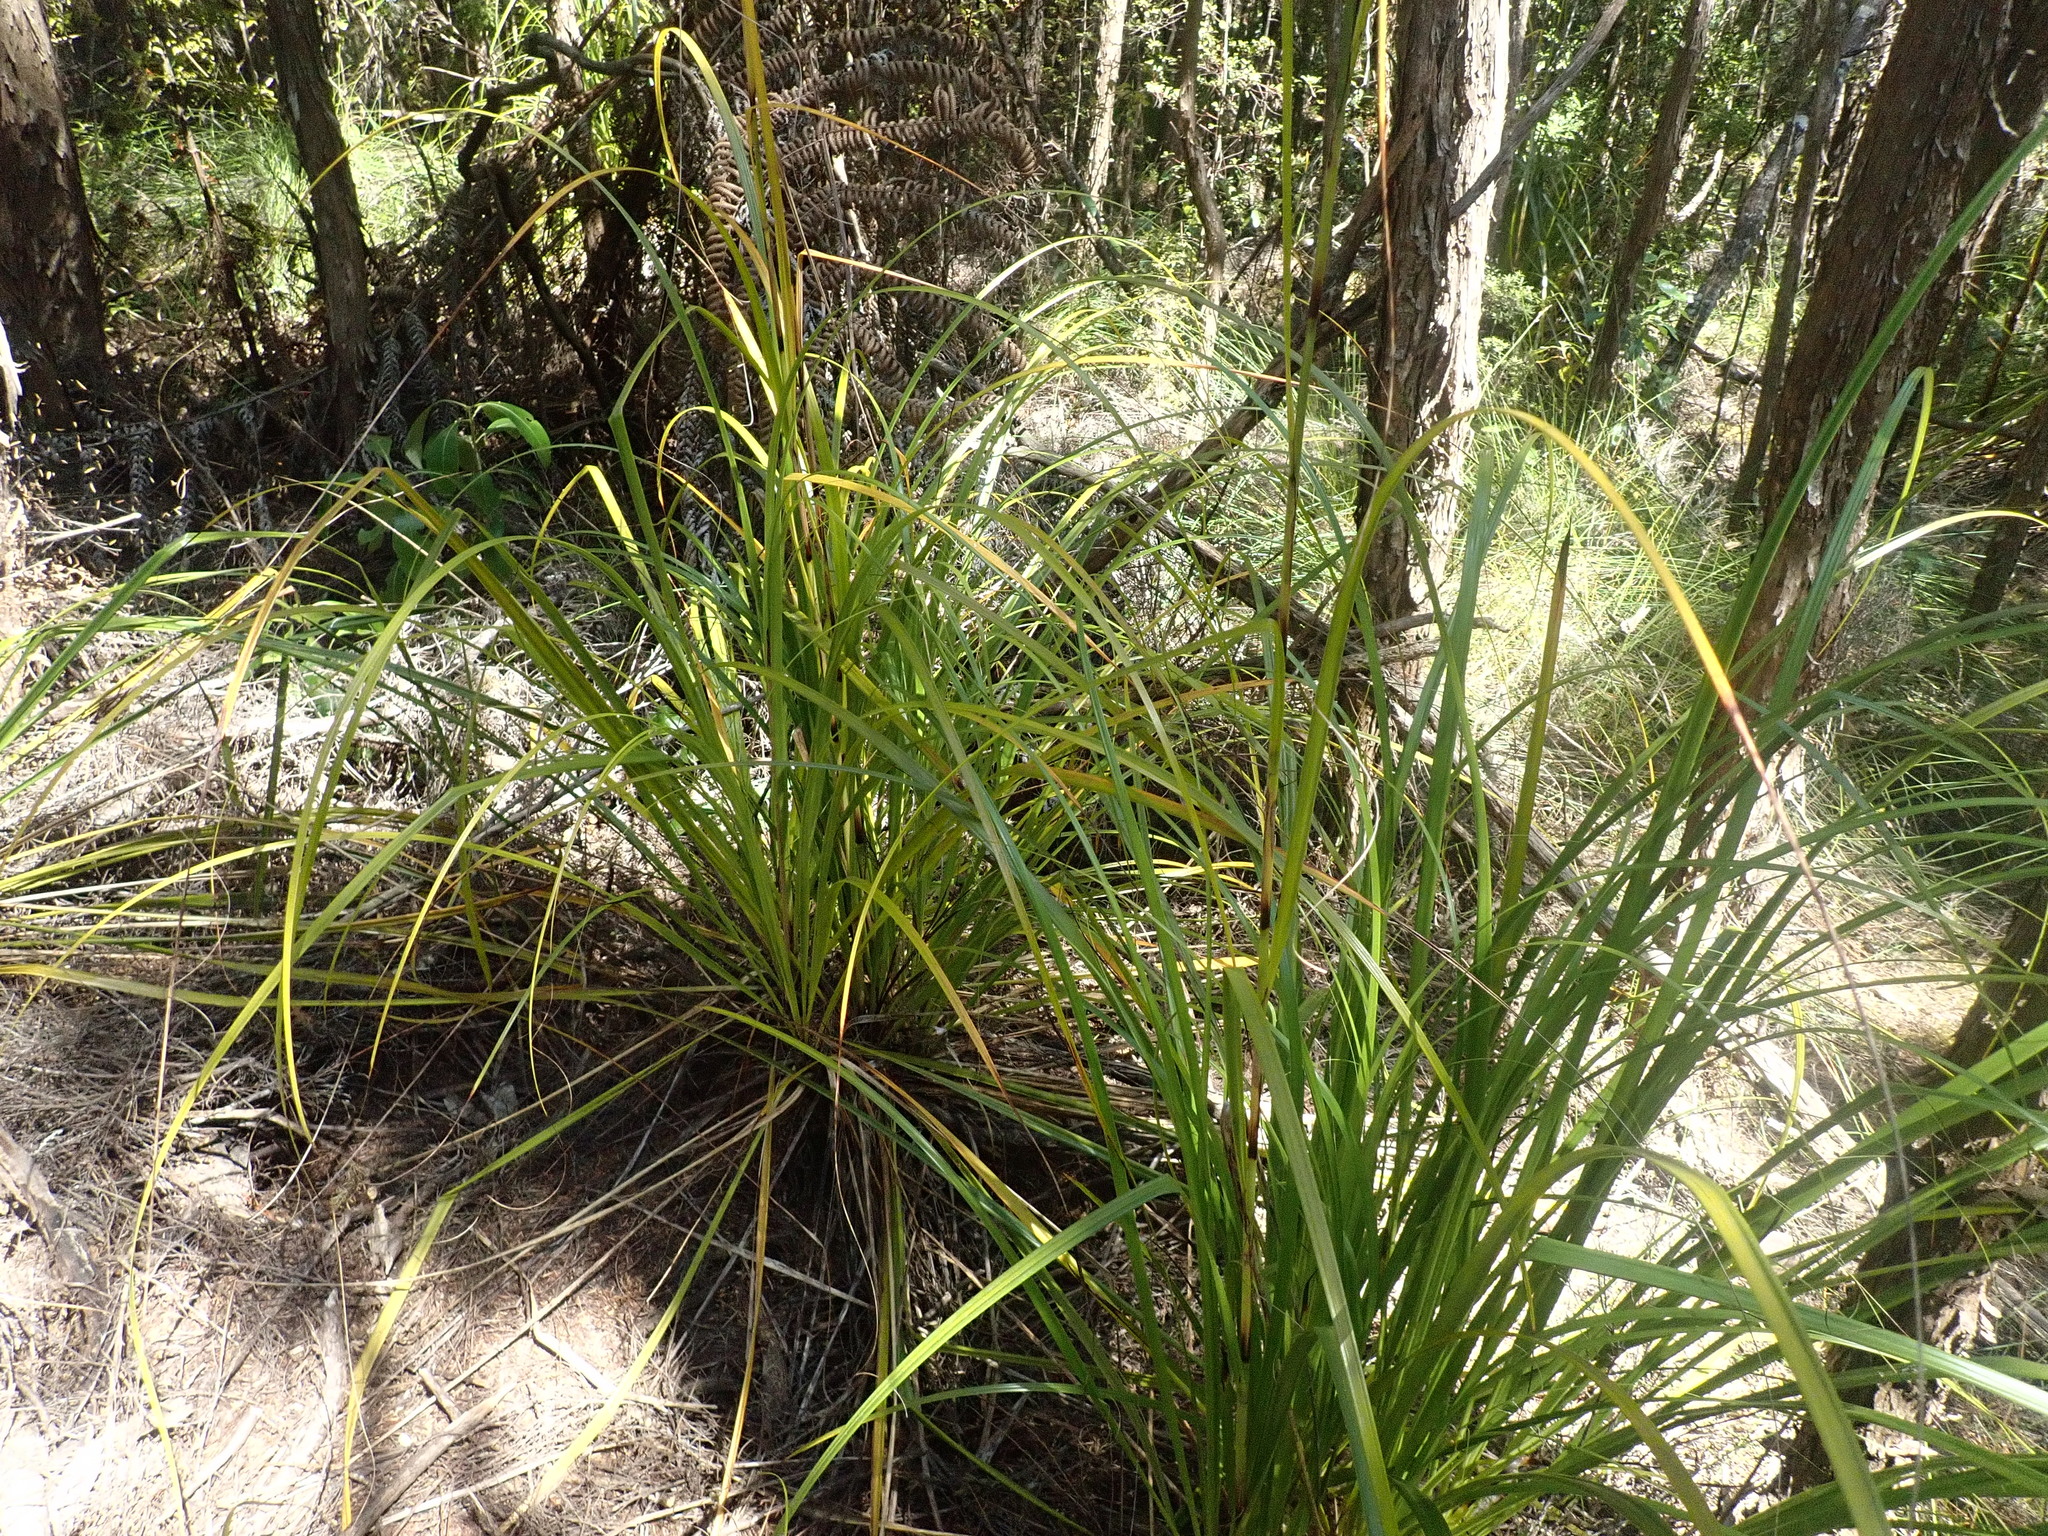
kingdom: Plantae
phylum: Tracheophyta
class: Liliopsida
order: Poales
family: Cyperaceae
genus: Gahnia
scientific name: Gahnia xanthocarpa
